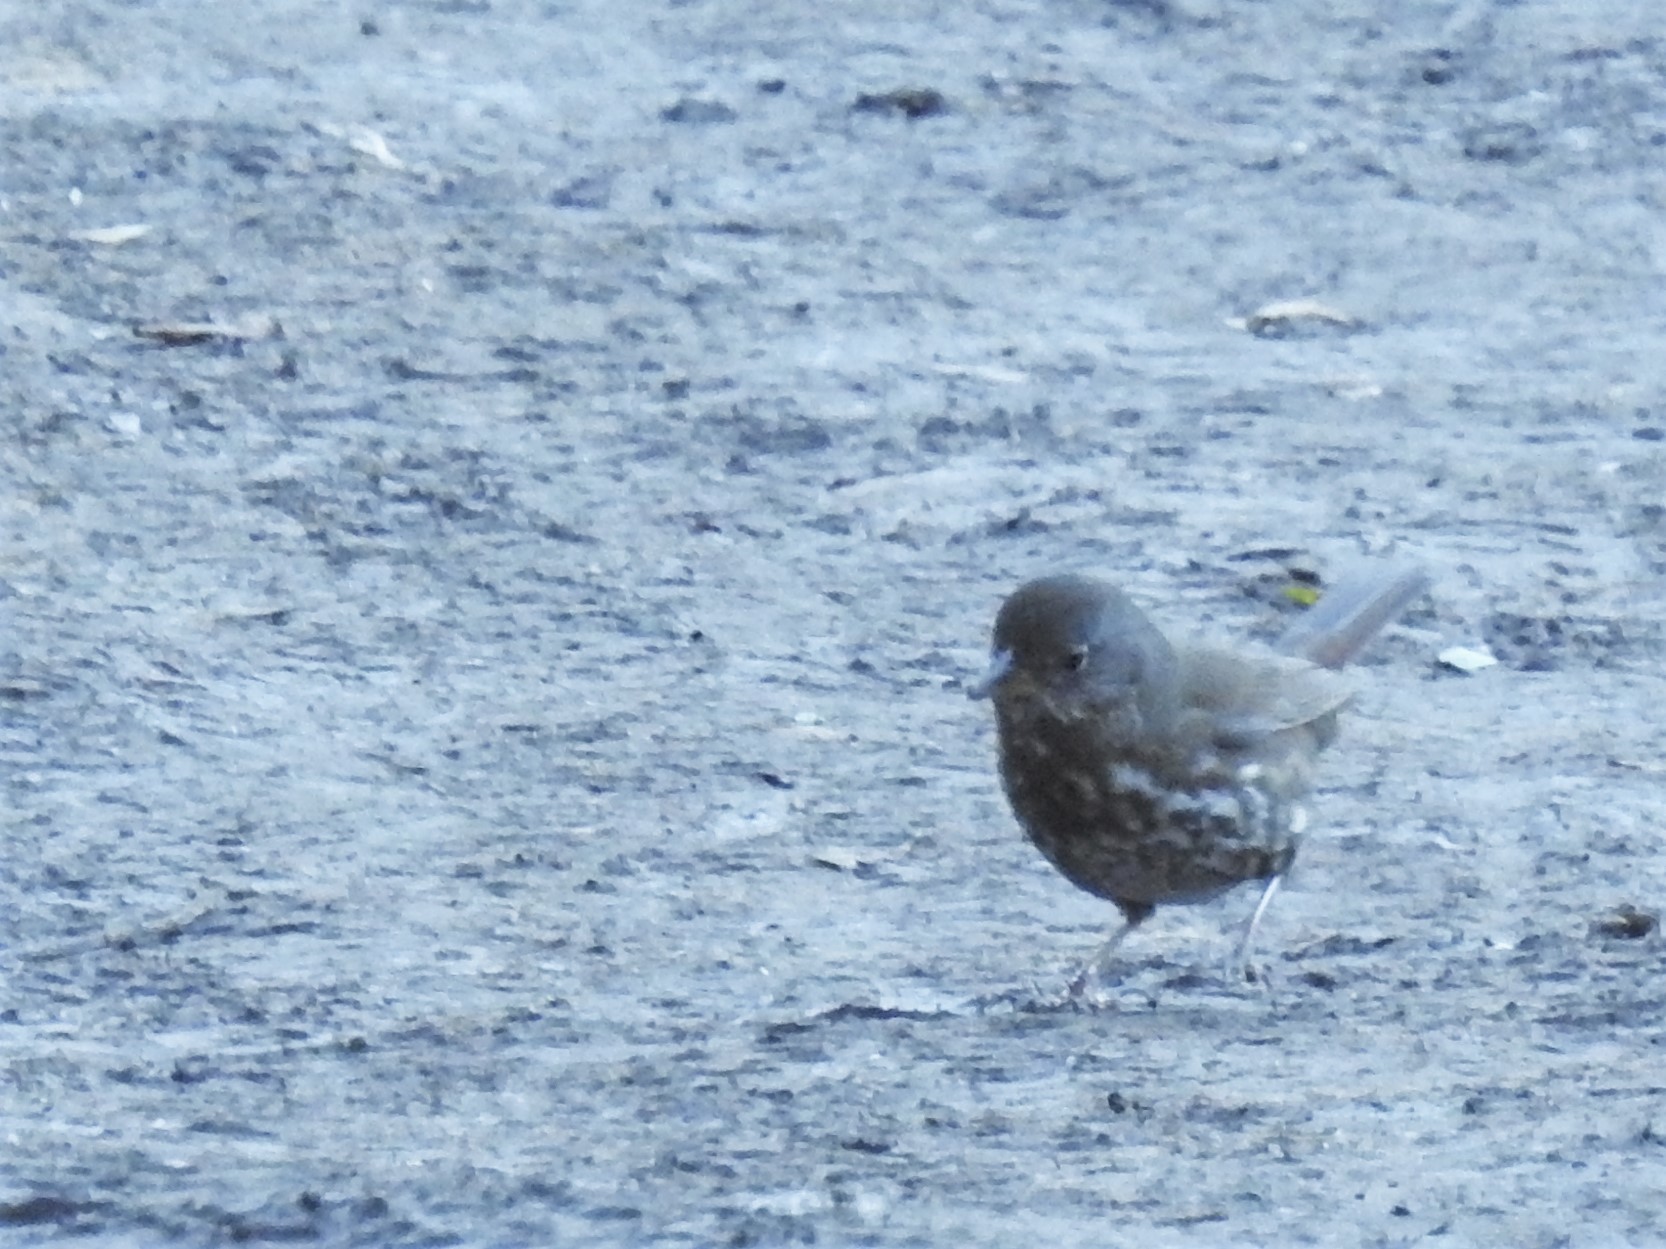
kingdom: Animalia
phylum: Chordata
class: Aves
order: Passeriformes
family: Passerellidae
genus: Passerella
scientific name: Passerella iliaca
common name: Fox sparrow
